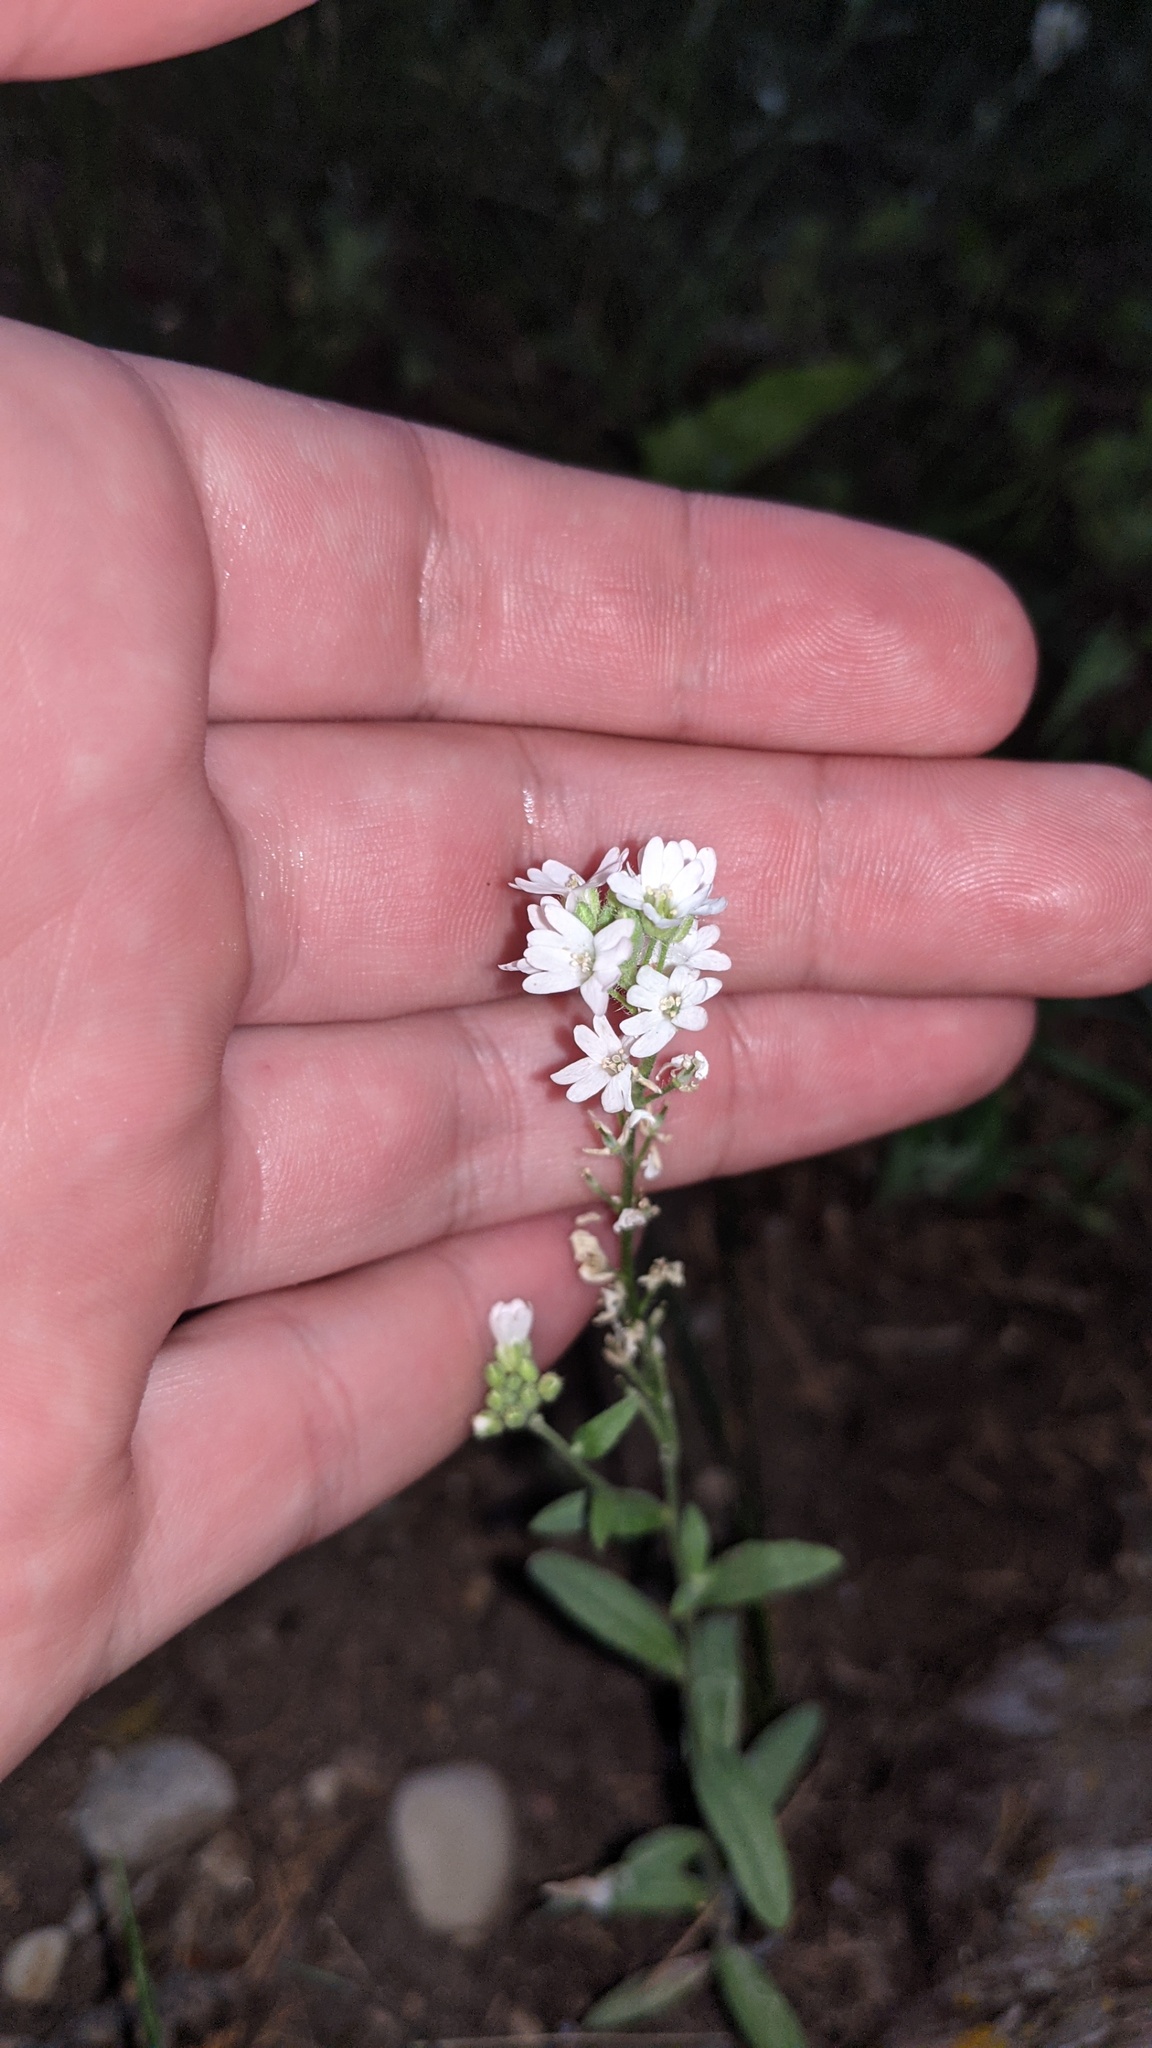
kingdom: Plantae
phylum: Tracheophyta
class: Magnoliopsida
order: Brassicales
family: Brassicaceae
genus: Berteroa
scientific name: Berteroa incana
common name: Hoary alison
